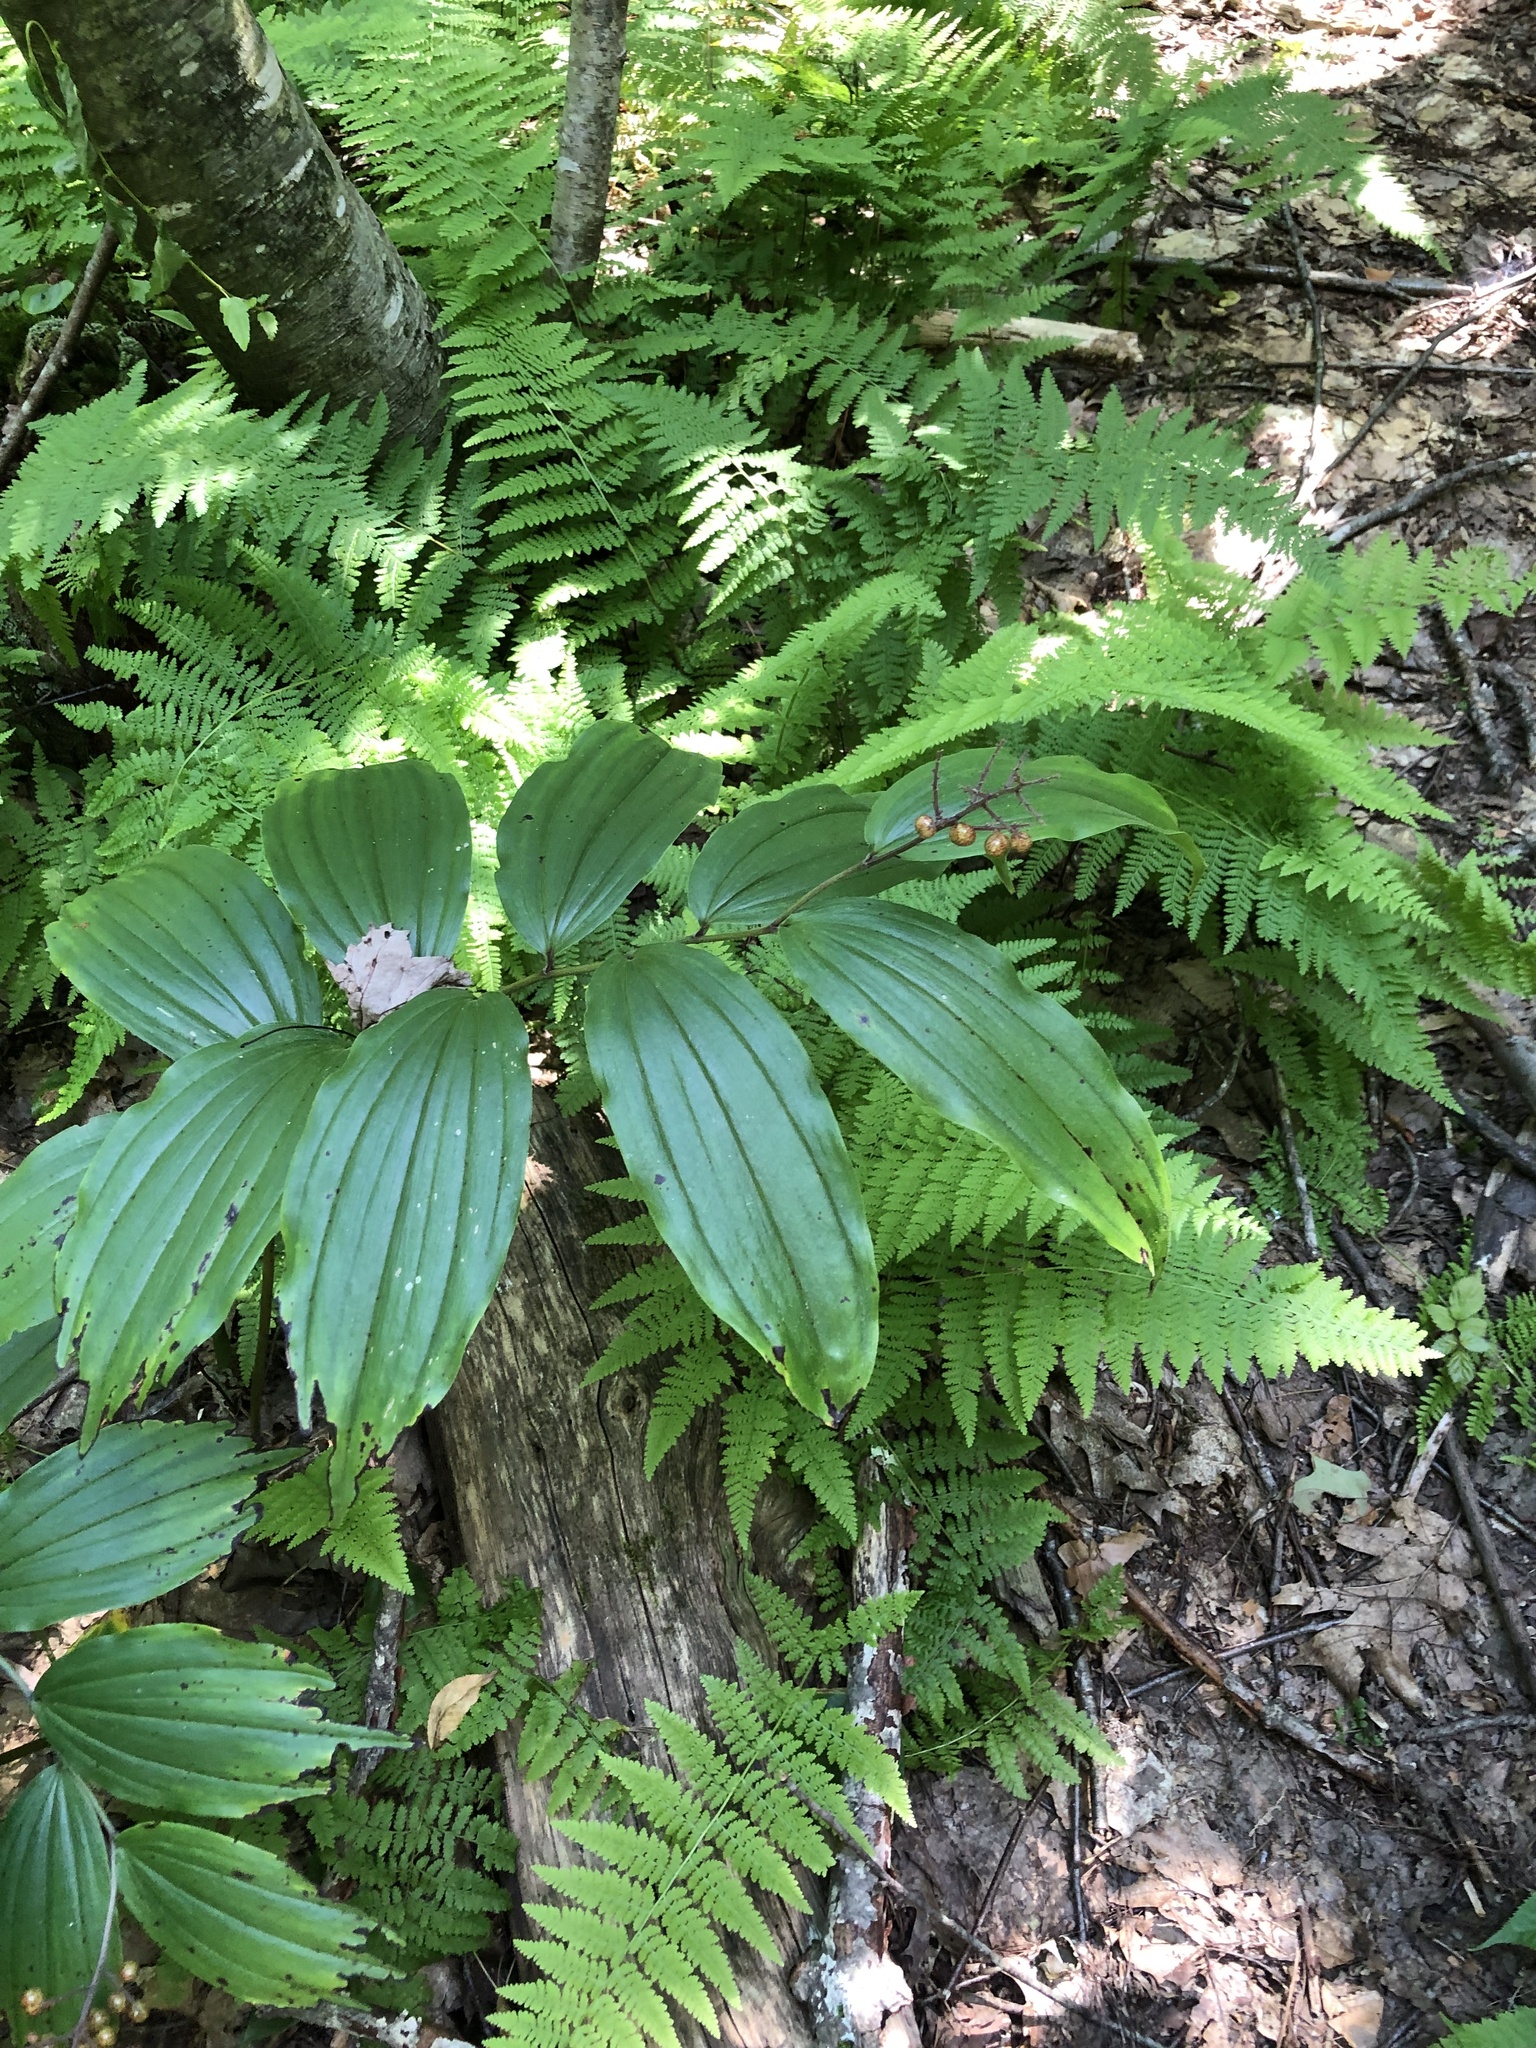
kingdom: Plantae
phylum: Tracheophyta
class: Liliopsida
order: Asparagales
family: Asparagaceae
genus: Maianthemum
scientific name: Maianthemum racemosum
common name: False spikenard
